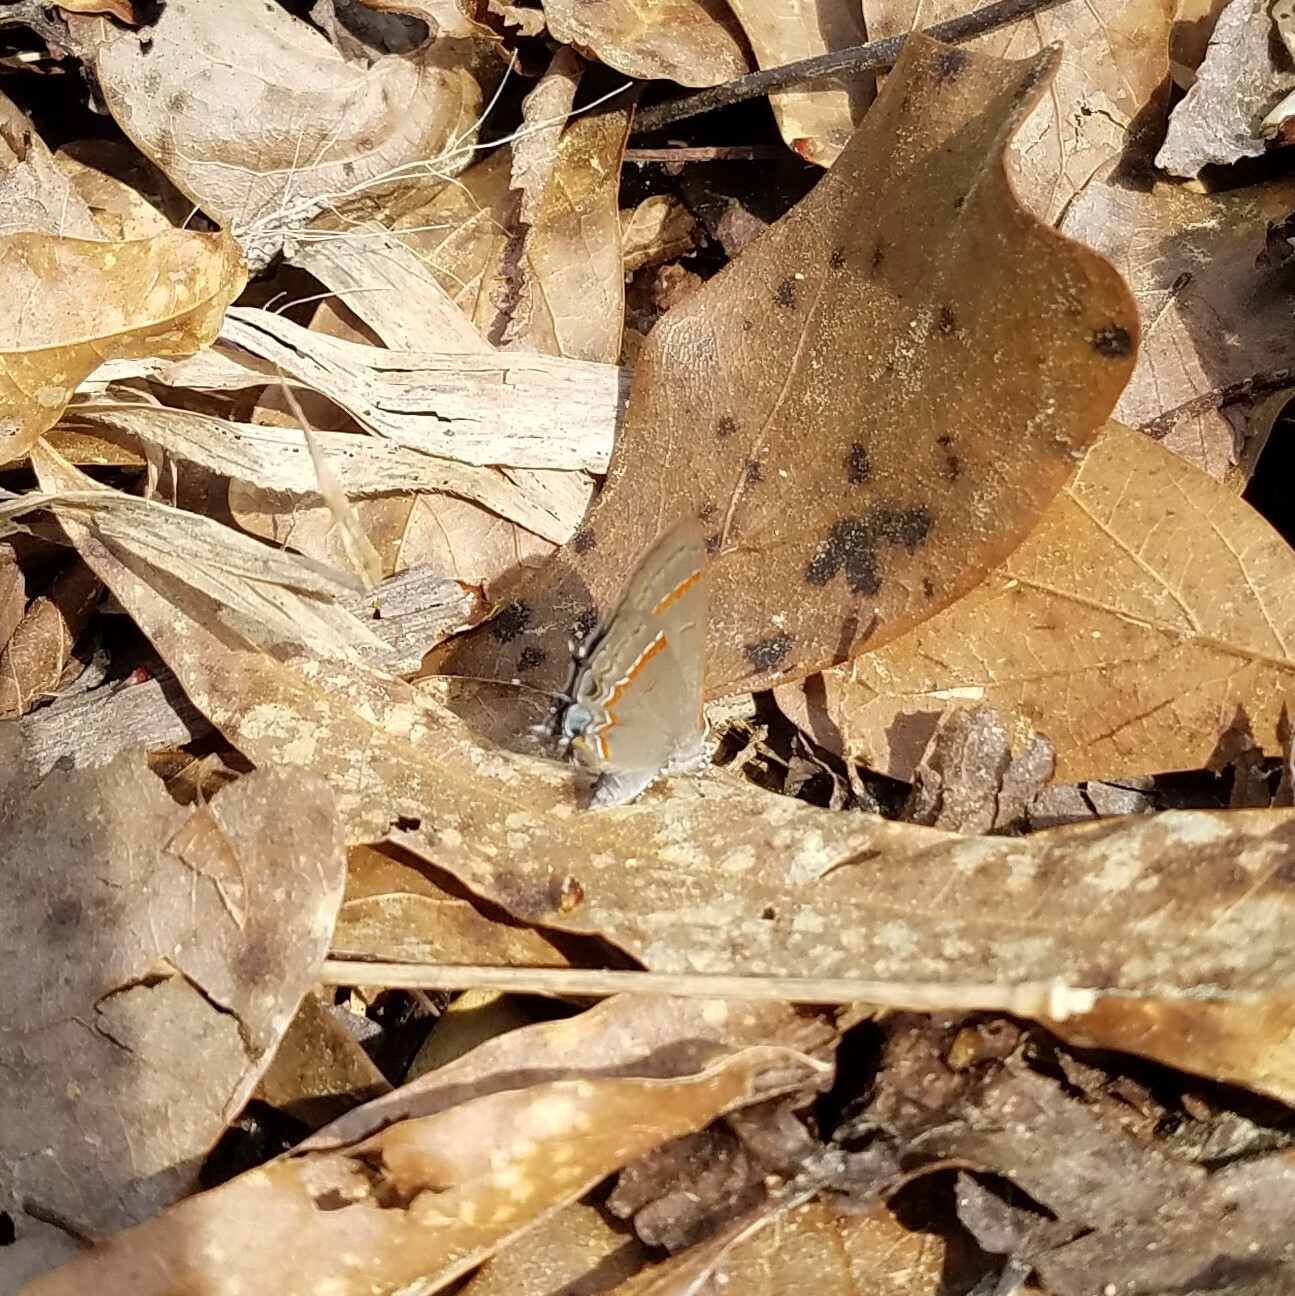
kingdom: Animalia
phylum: Arthropoda
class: Insecta
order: Lepidoptera
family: Lycaenidae
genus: Calycopis
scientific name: Calycopis cecrops
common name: Red-banded hairstreak
